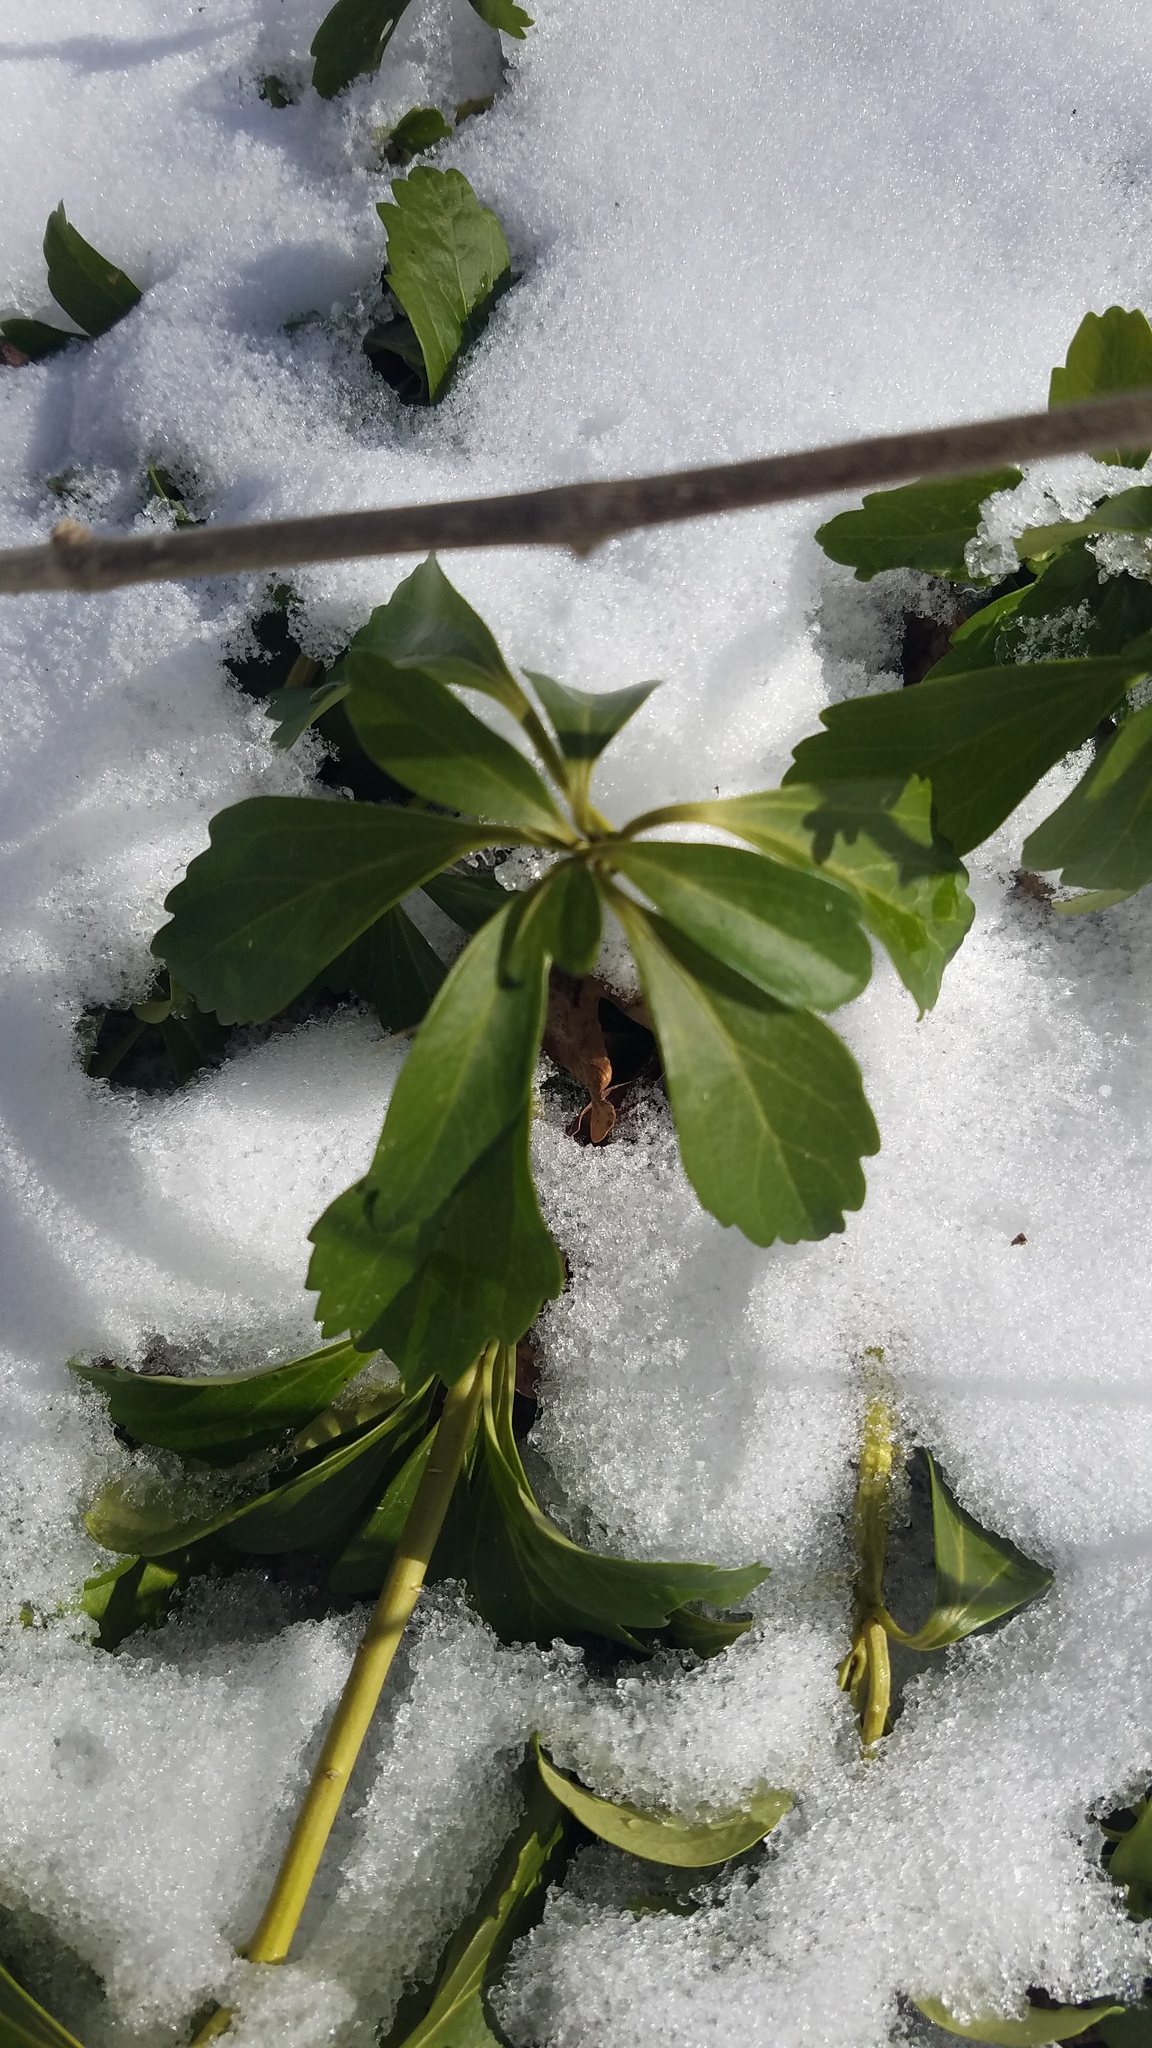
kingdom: Plantae
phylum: Tracheophyta
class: Magnoliopsida
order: Buxales
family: Buxaceae
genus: Pachysandra
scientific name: Pachysandra terminalis
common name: Japanese pachysandra
